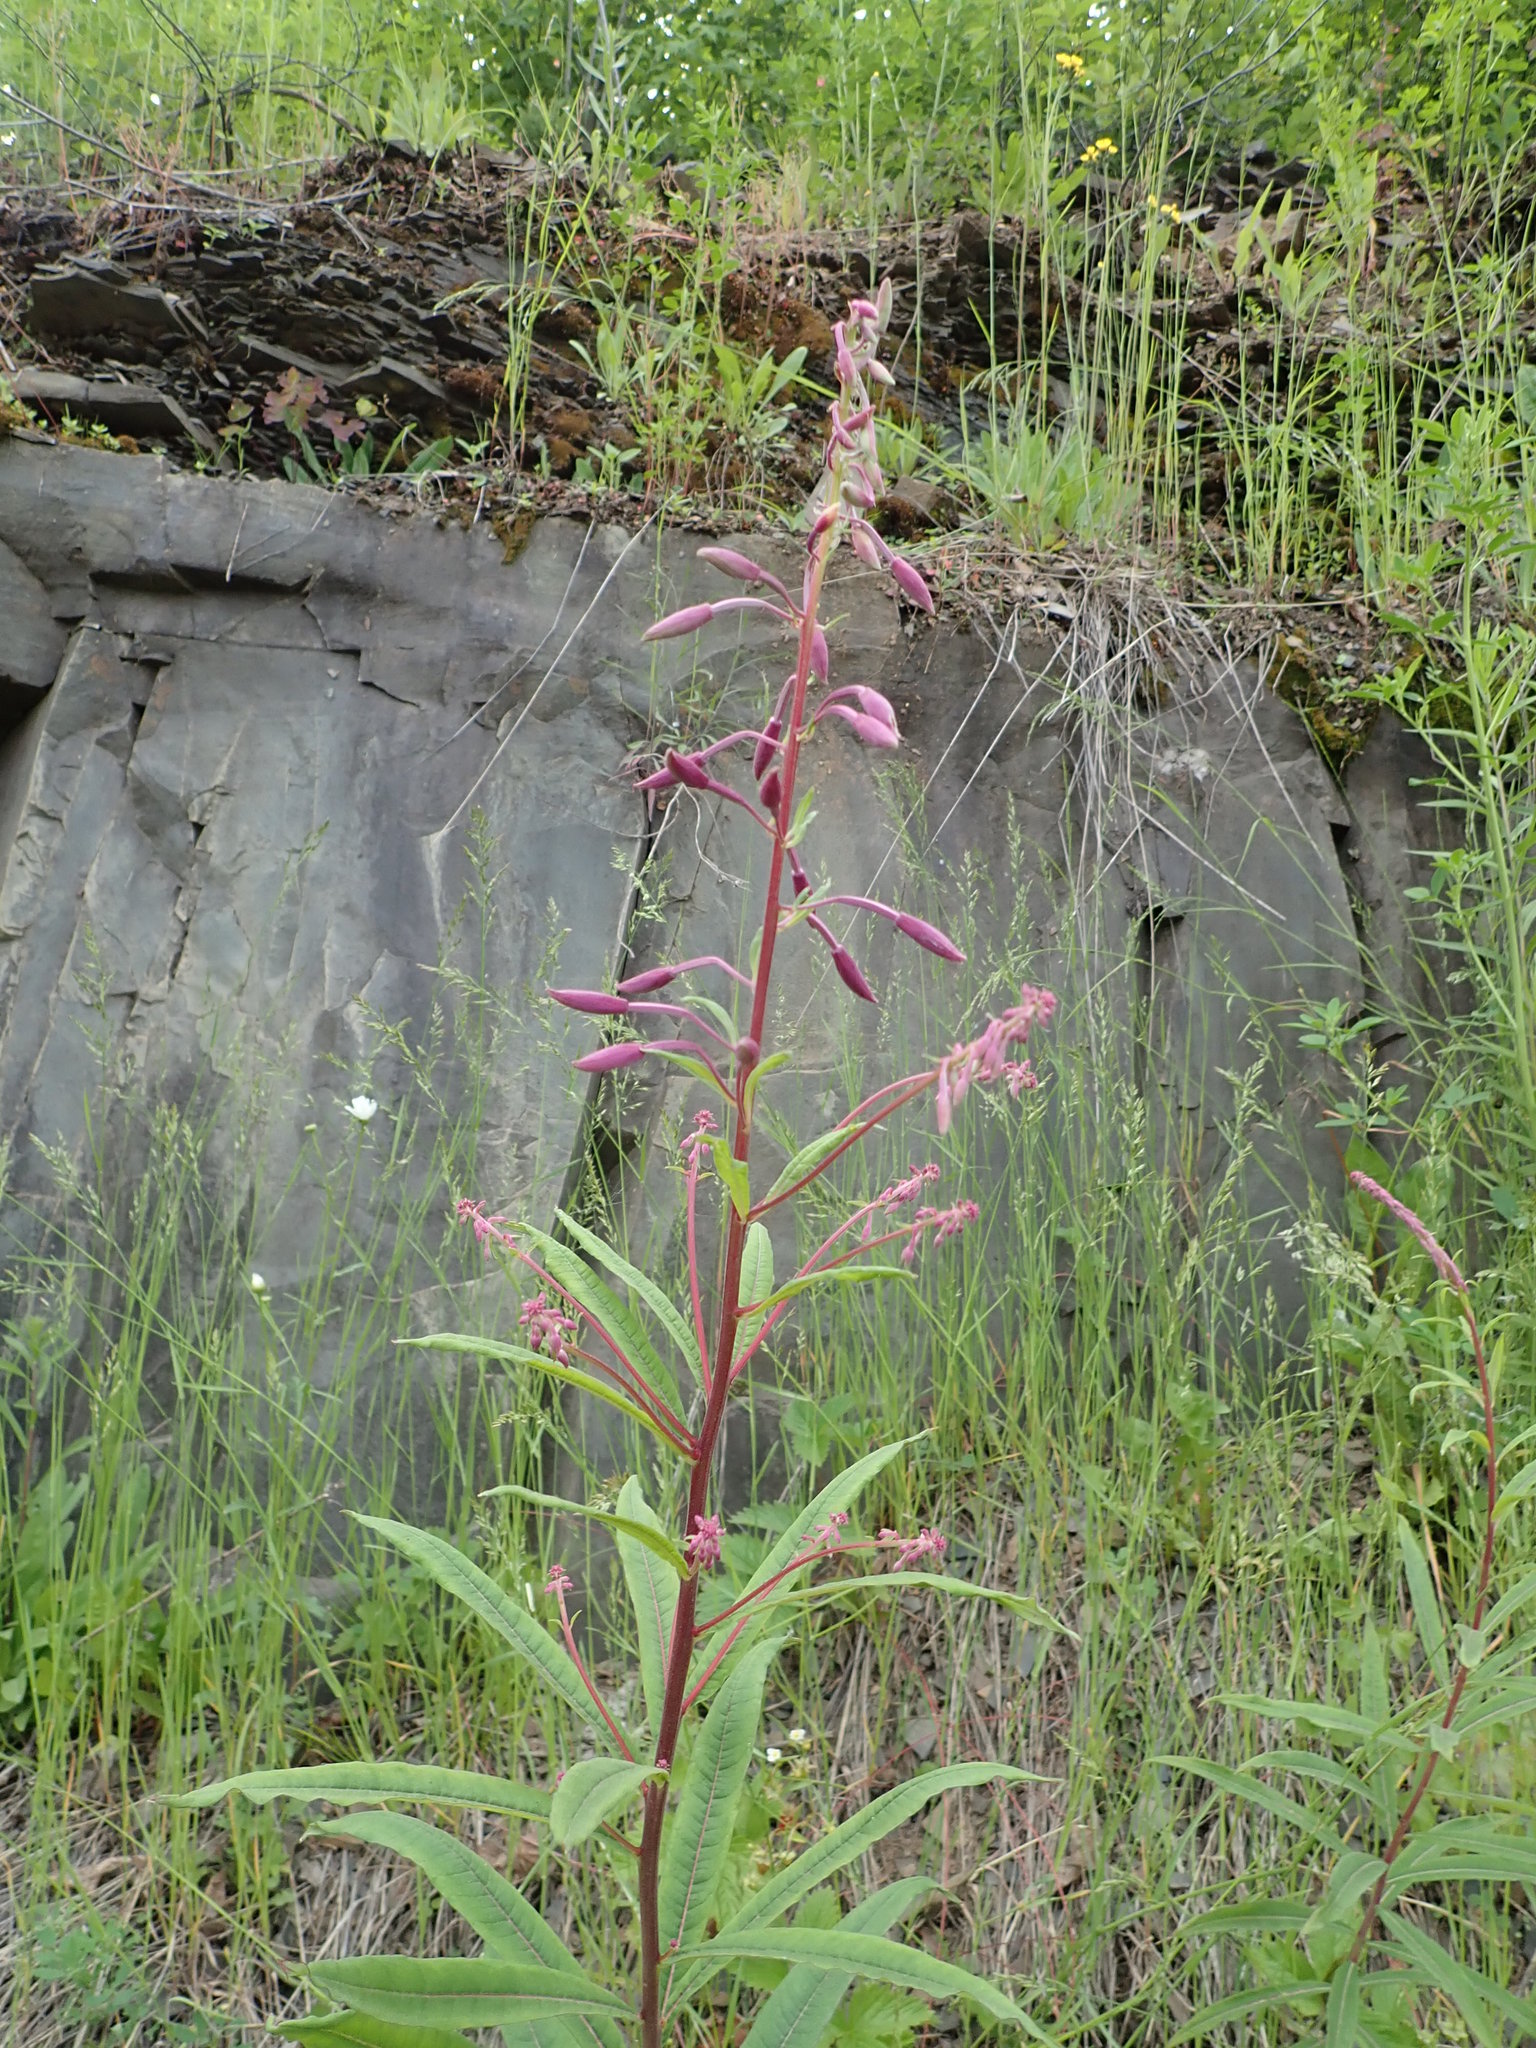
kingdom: Plantae
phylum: Tracheophyta
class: Magnoliopsida
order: Myrtales
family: Onagraceae
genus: Chamaenerion
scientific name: Chamaenerion angustifolium
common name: Fireweed
